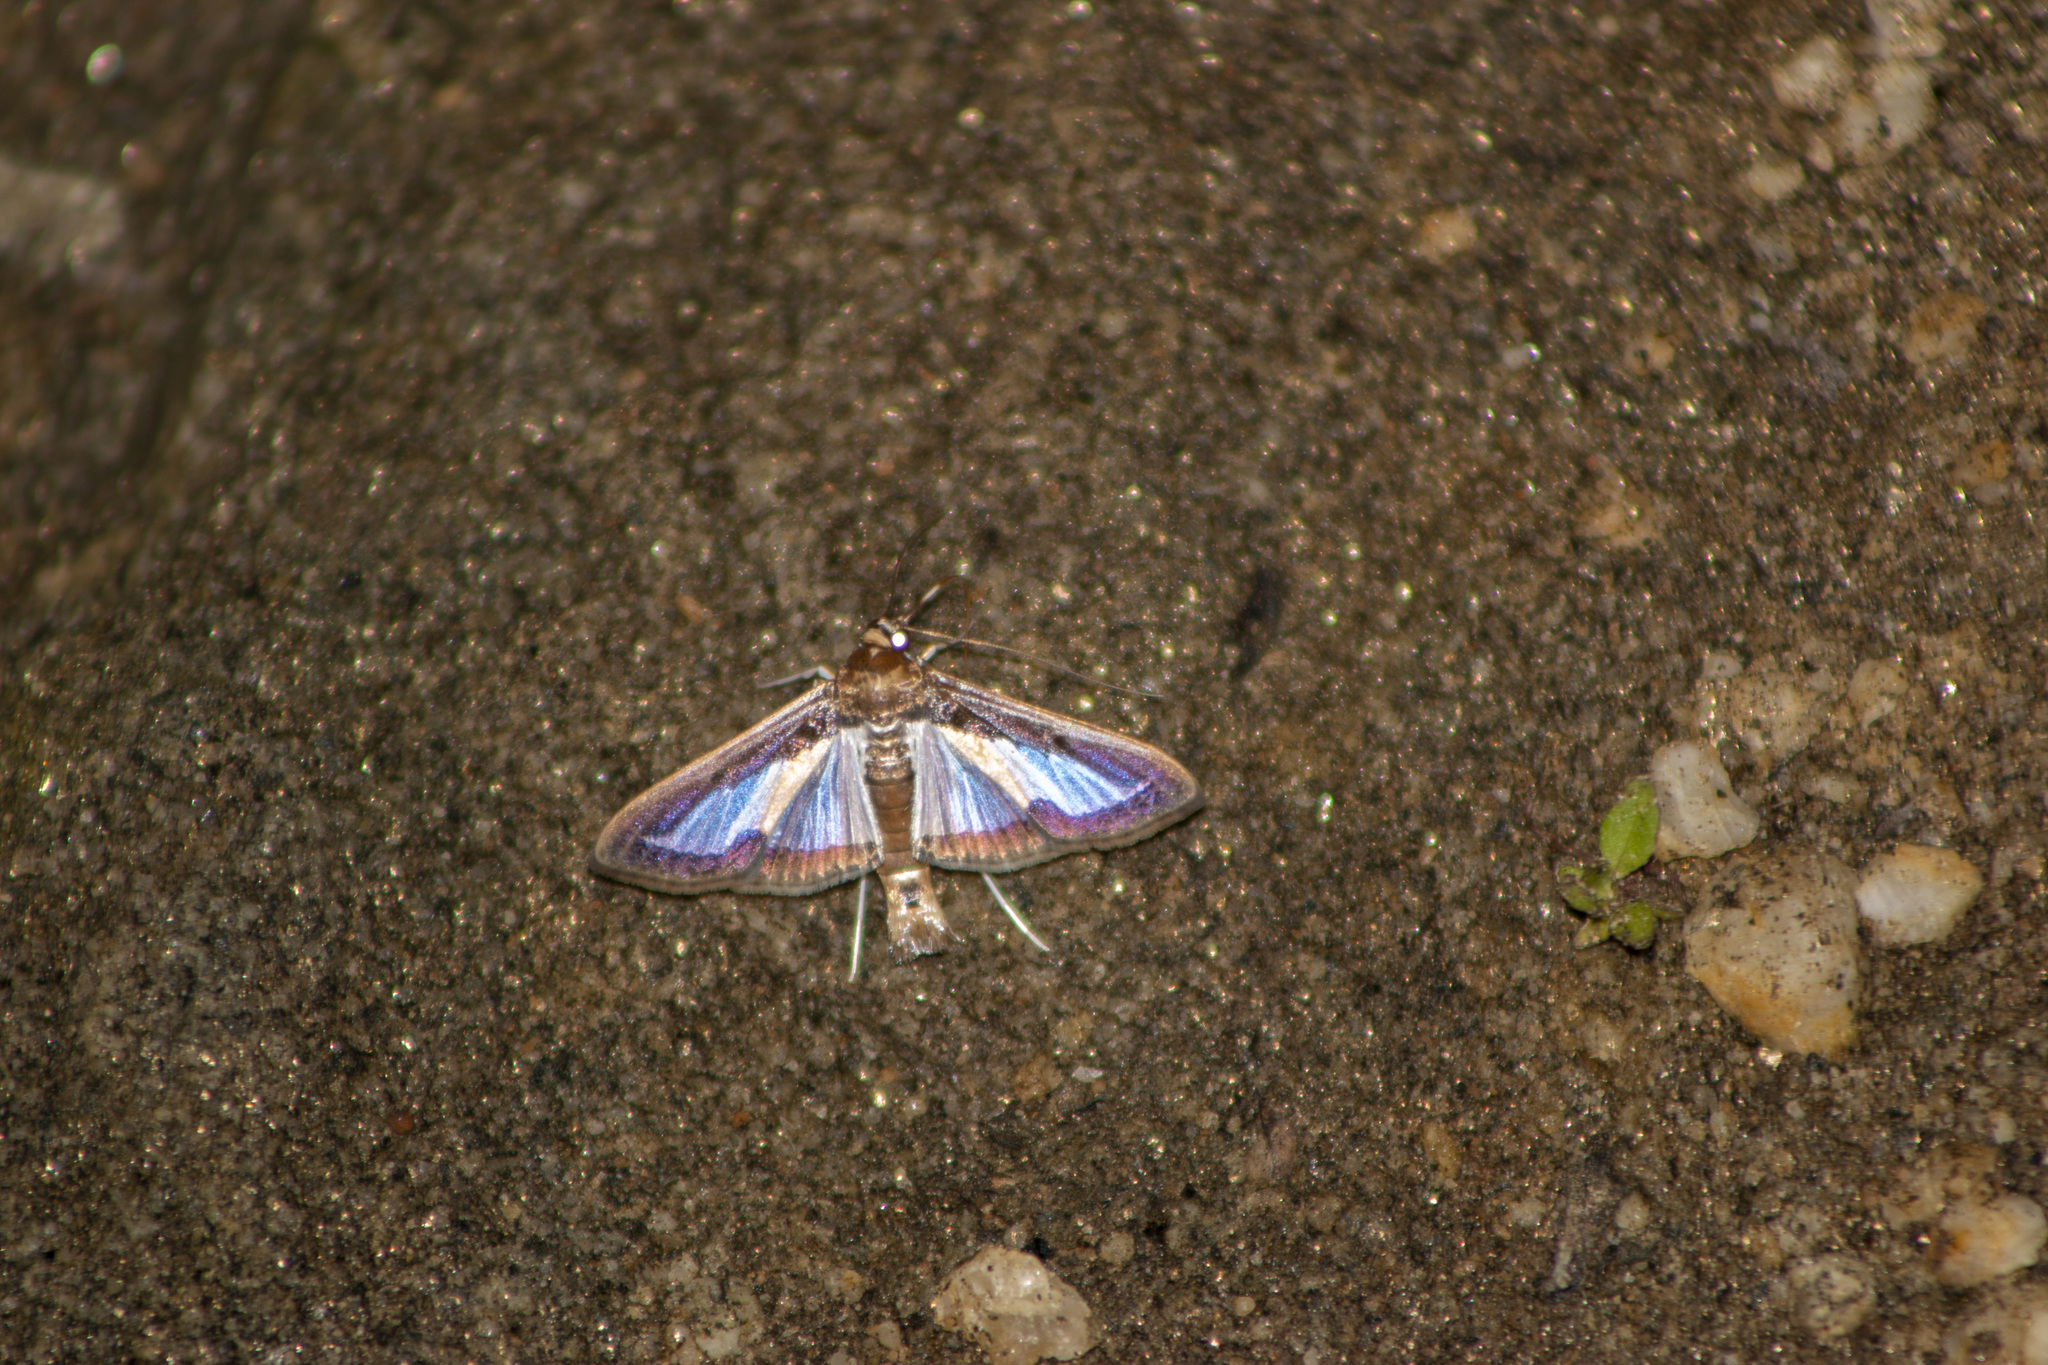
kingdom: Animalia
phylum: Arthropoda
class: Insecta
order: Lepidoptera
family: Crambidae
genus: Diaphania
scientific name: Diaphania elegans
